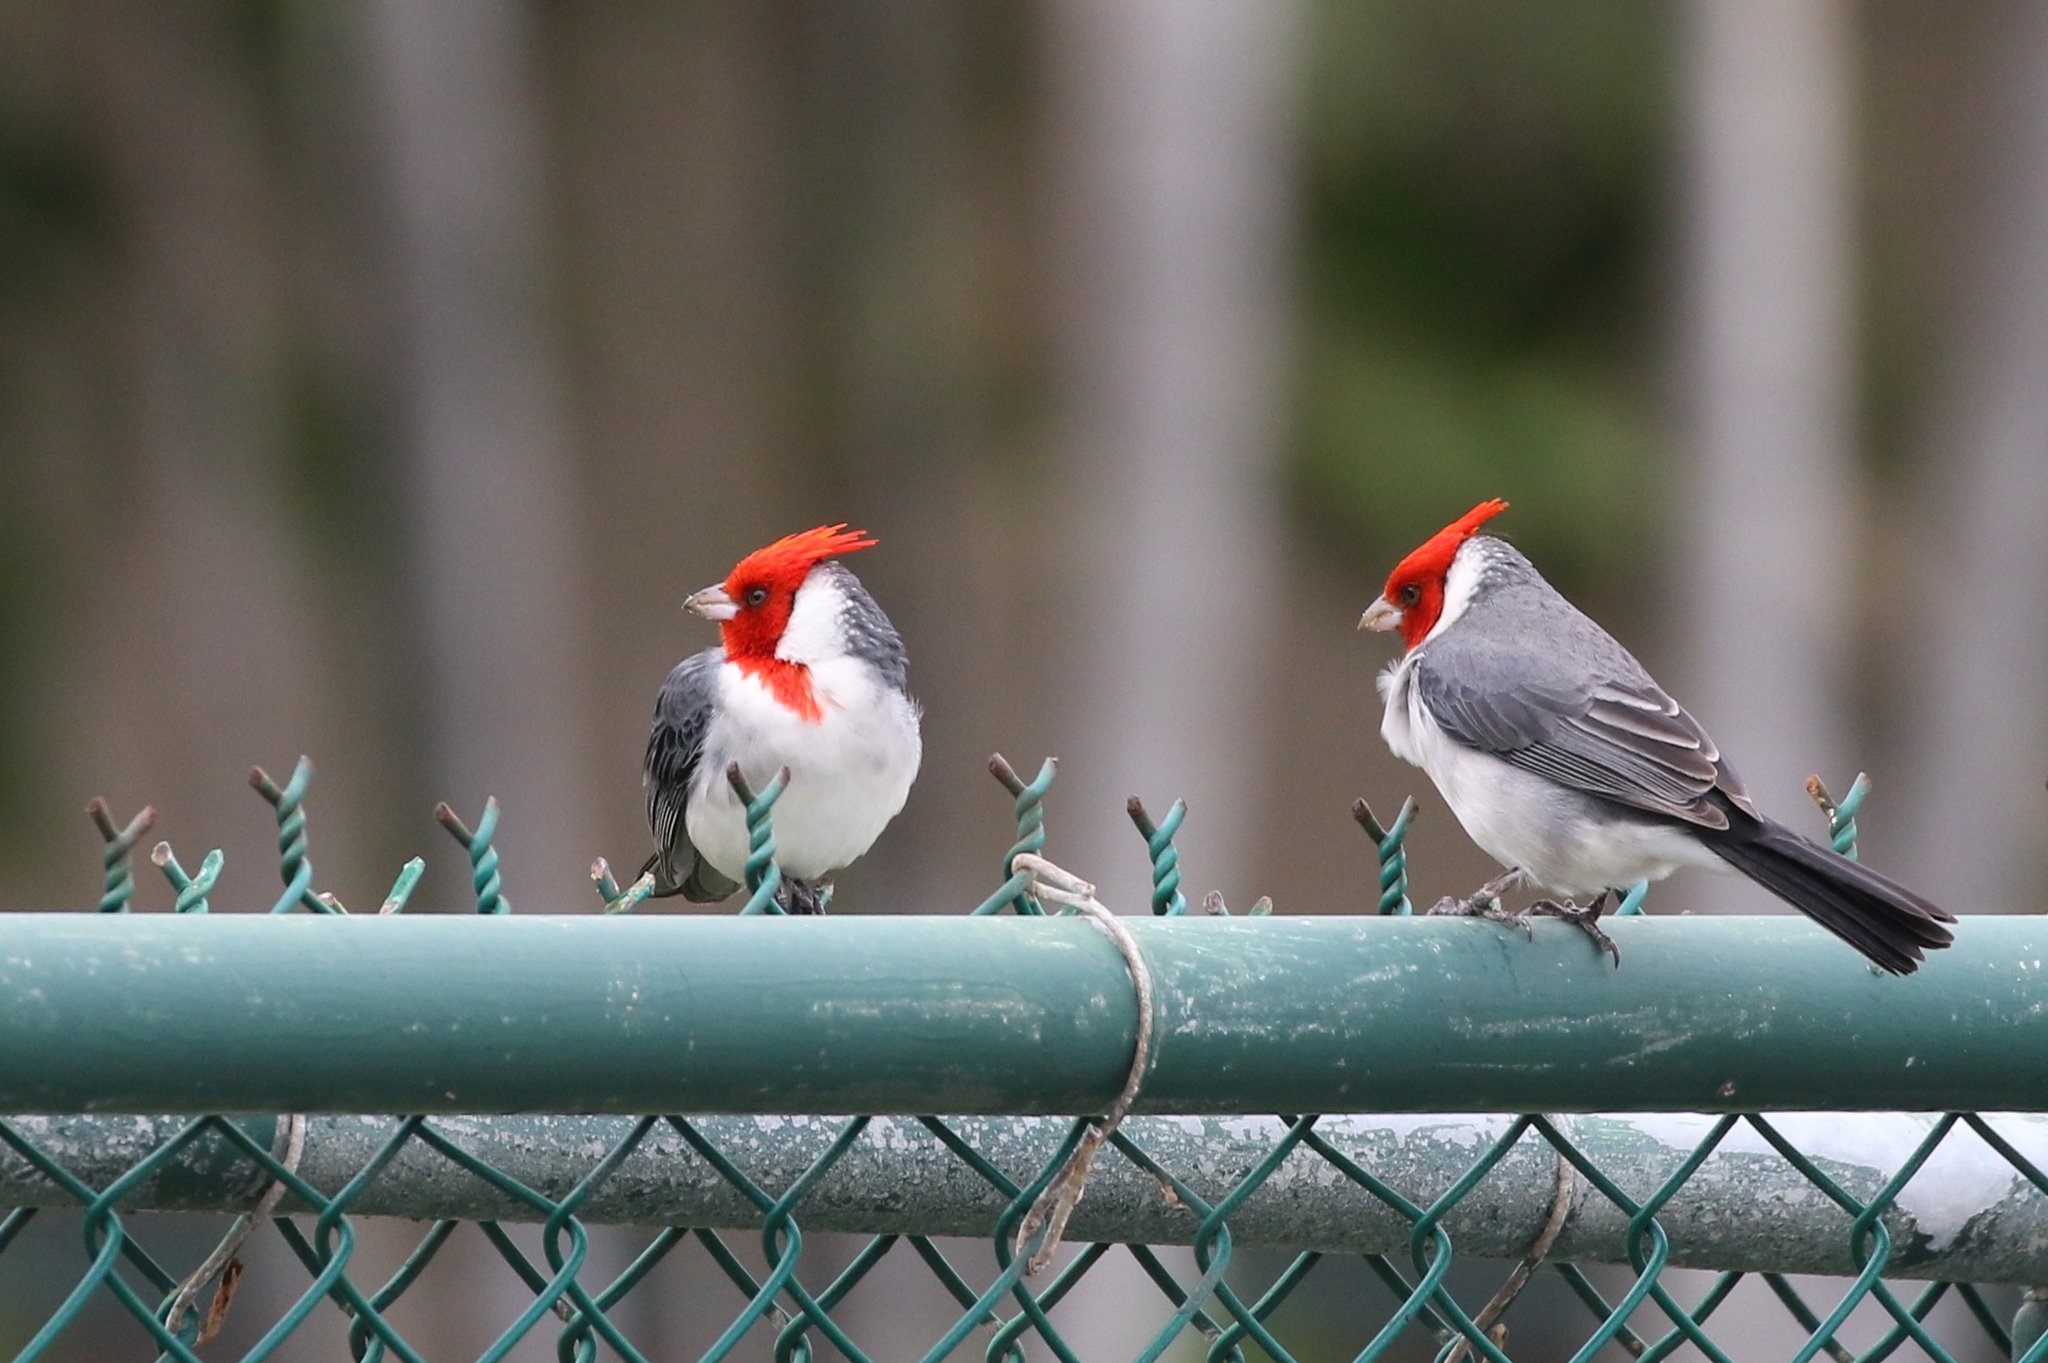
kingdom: Animalia
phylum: Chordata
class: Aves
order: Passeriformes
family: Thraupidae
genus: Paroaria
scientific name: Paroaria coronata
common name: Red-crested cardinal
